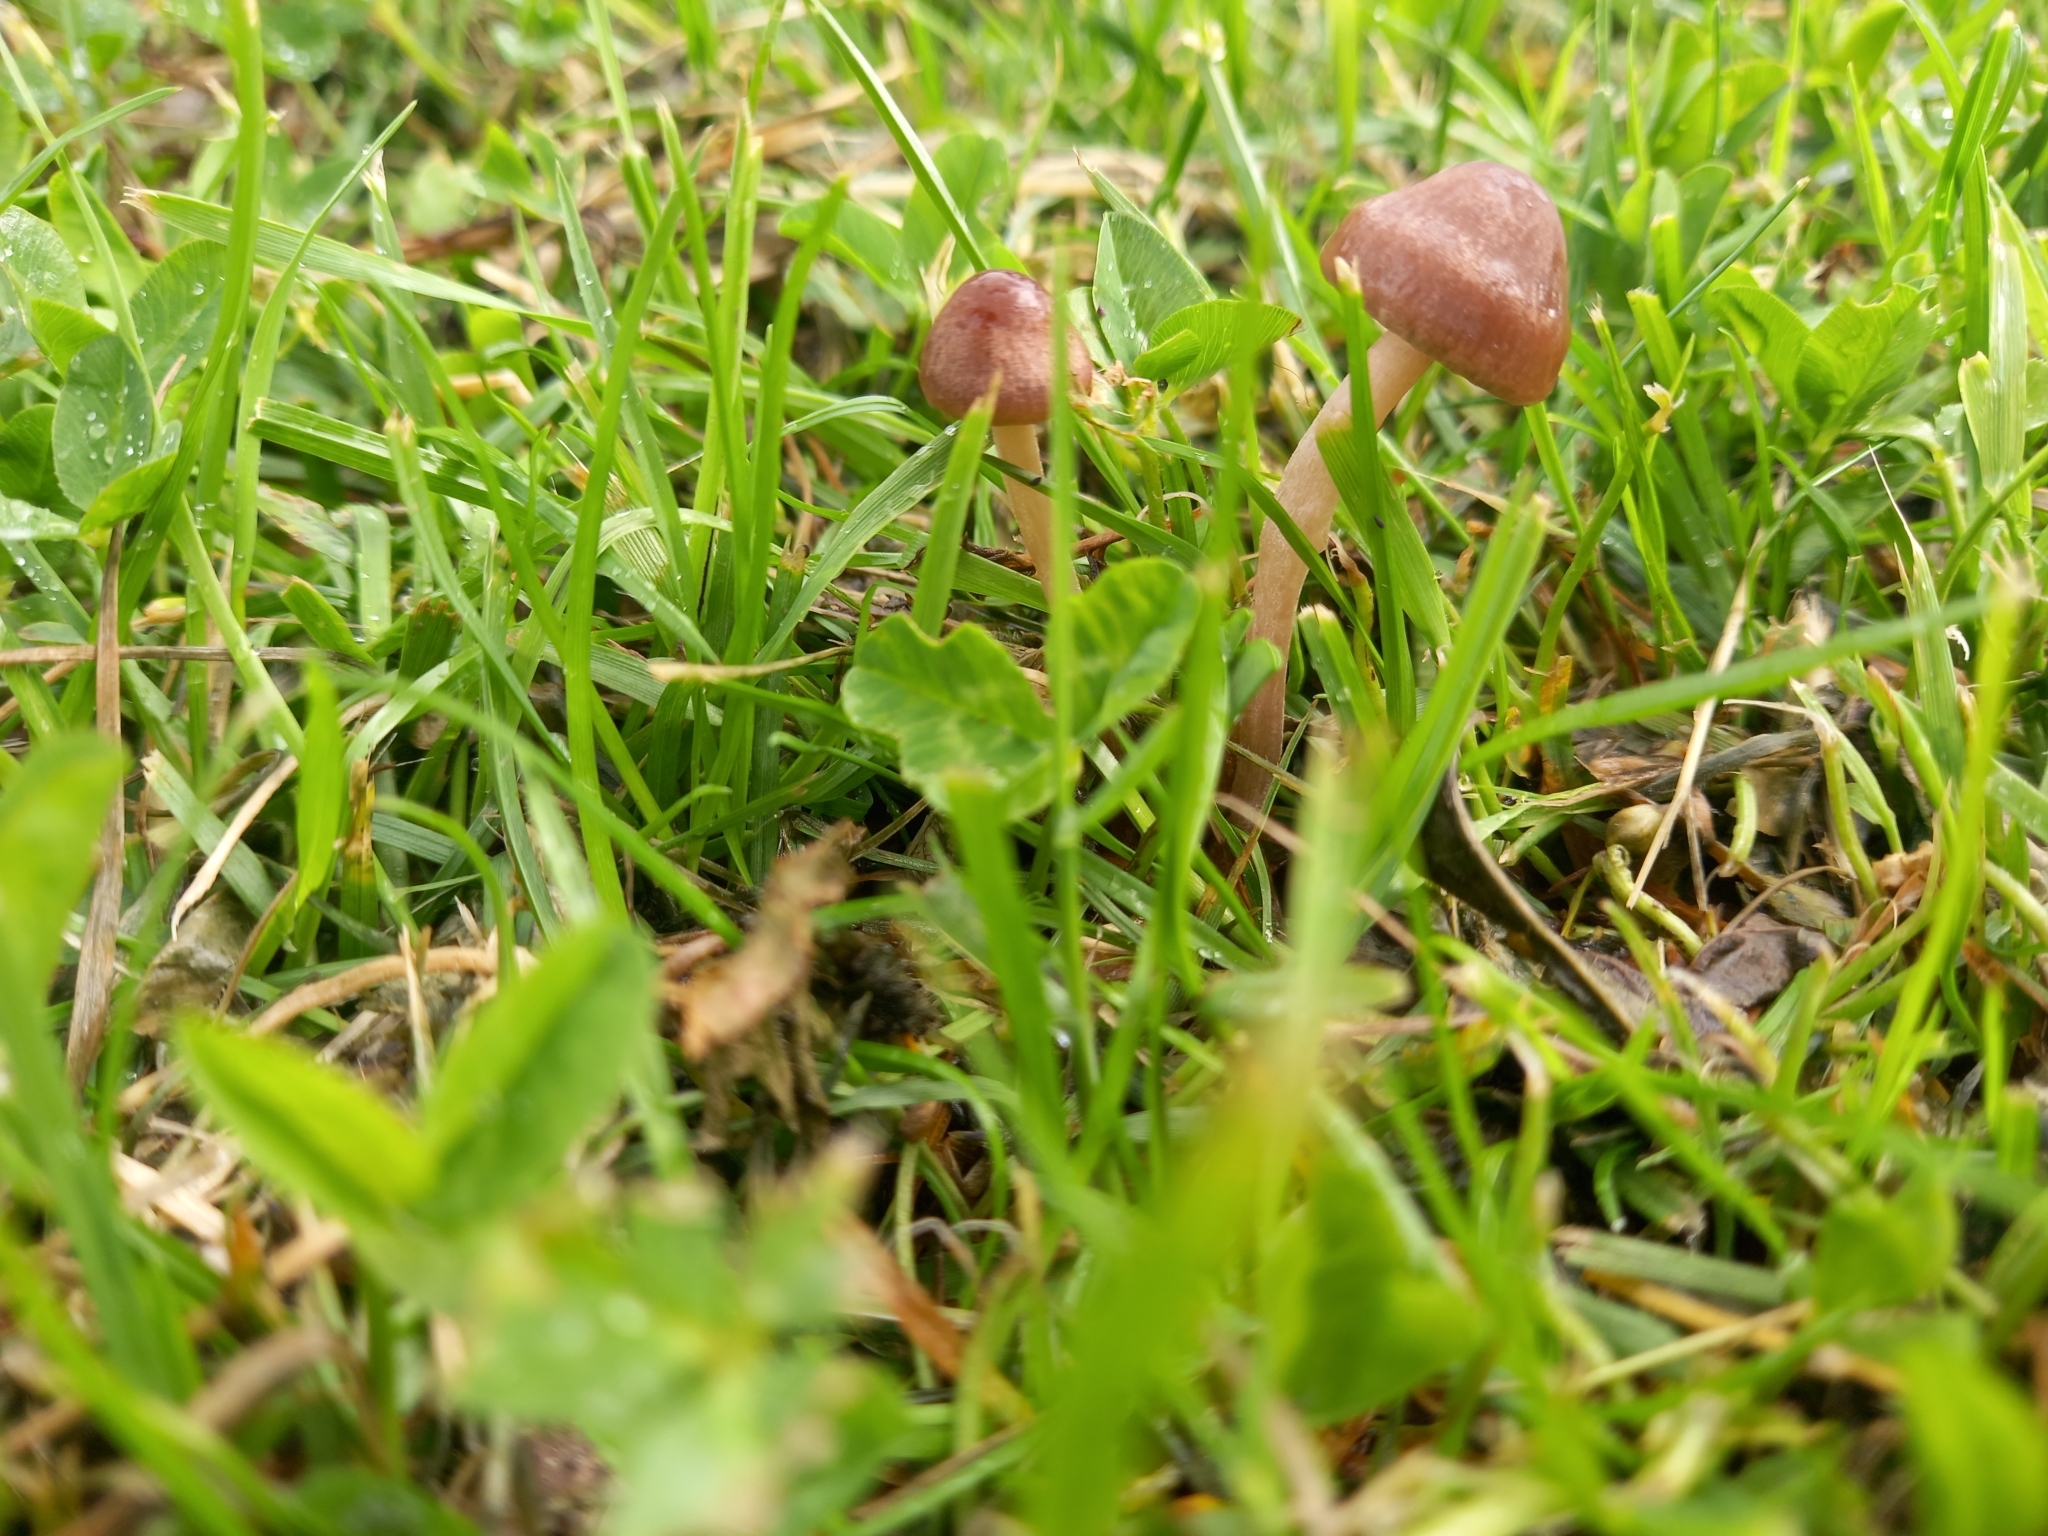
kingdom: Fungi
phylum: Basidiomycota
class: Agaricomycetes
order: Agaricales
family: Bolbitiaceae
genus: Panaeolina
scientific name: Panaeolina foenisecii
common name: Brown hay cap
